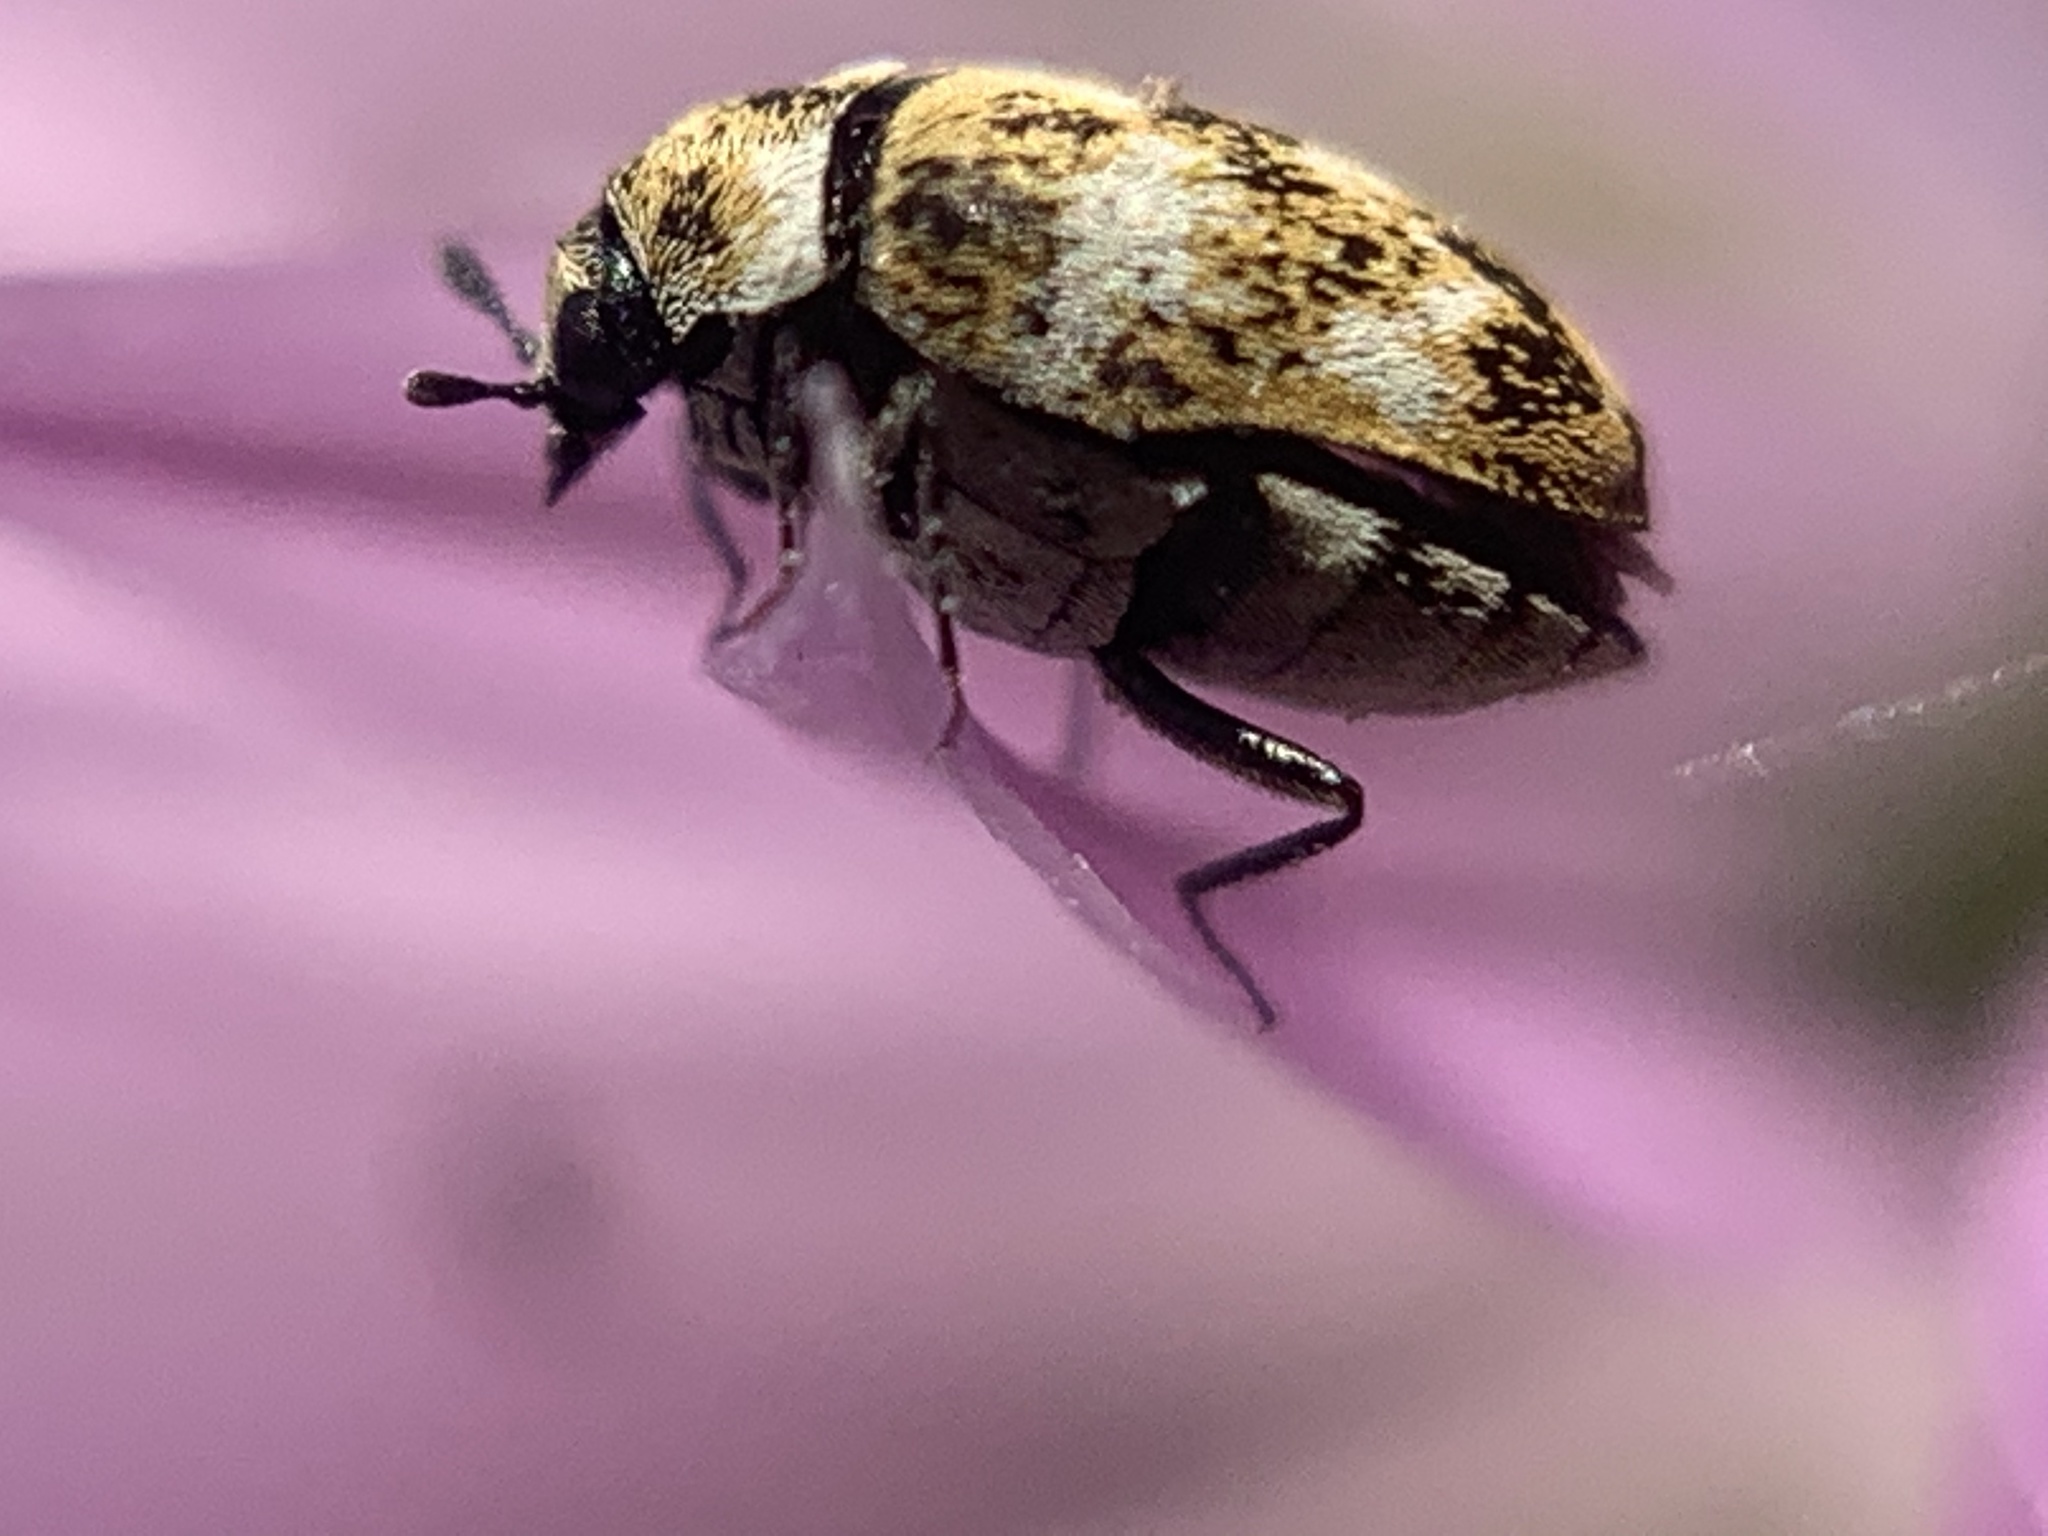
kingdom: Animalia
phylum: Arthropoda
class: Insecta
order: Coleoptera
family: Dermestidae
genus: Anthrenus
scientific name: Anthrenus verbasci
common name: Varied carpet beetle
